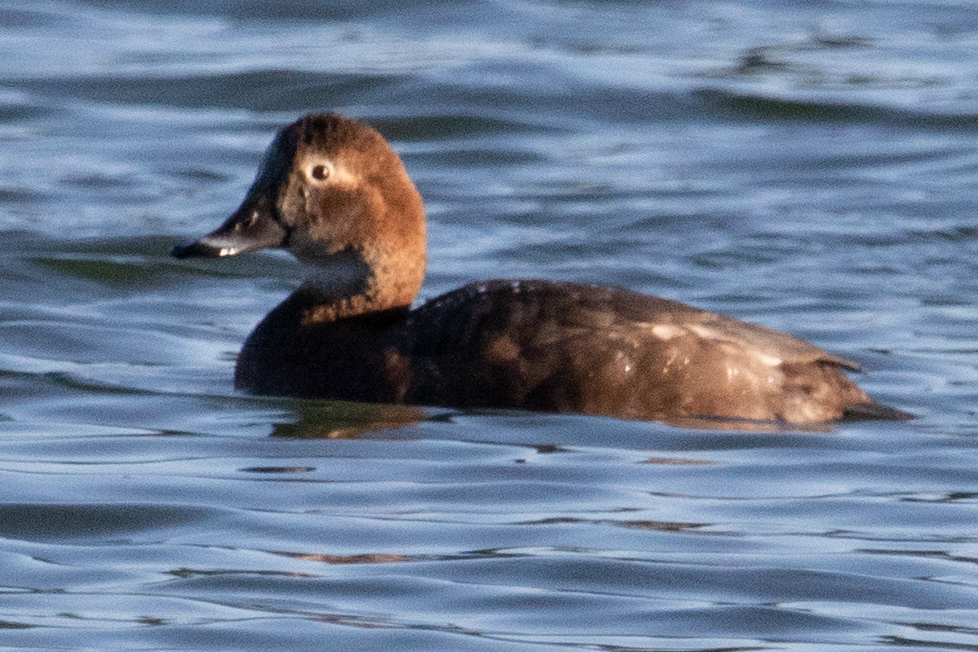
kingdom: Animalia
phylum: Chordata
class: Aves
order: Anseriformes
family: Anatidae
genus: Aythya
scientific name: Aythya ferina
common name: Common pochard
